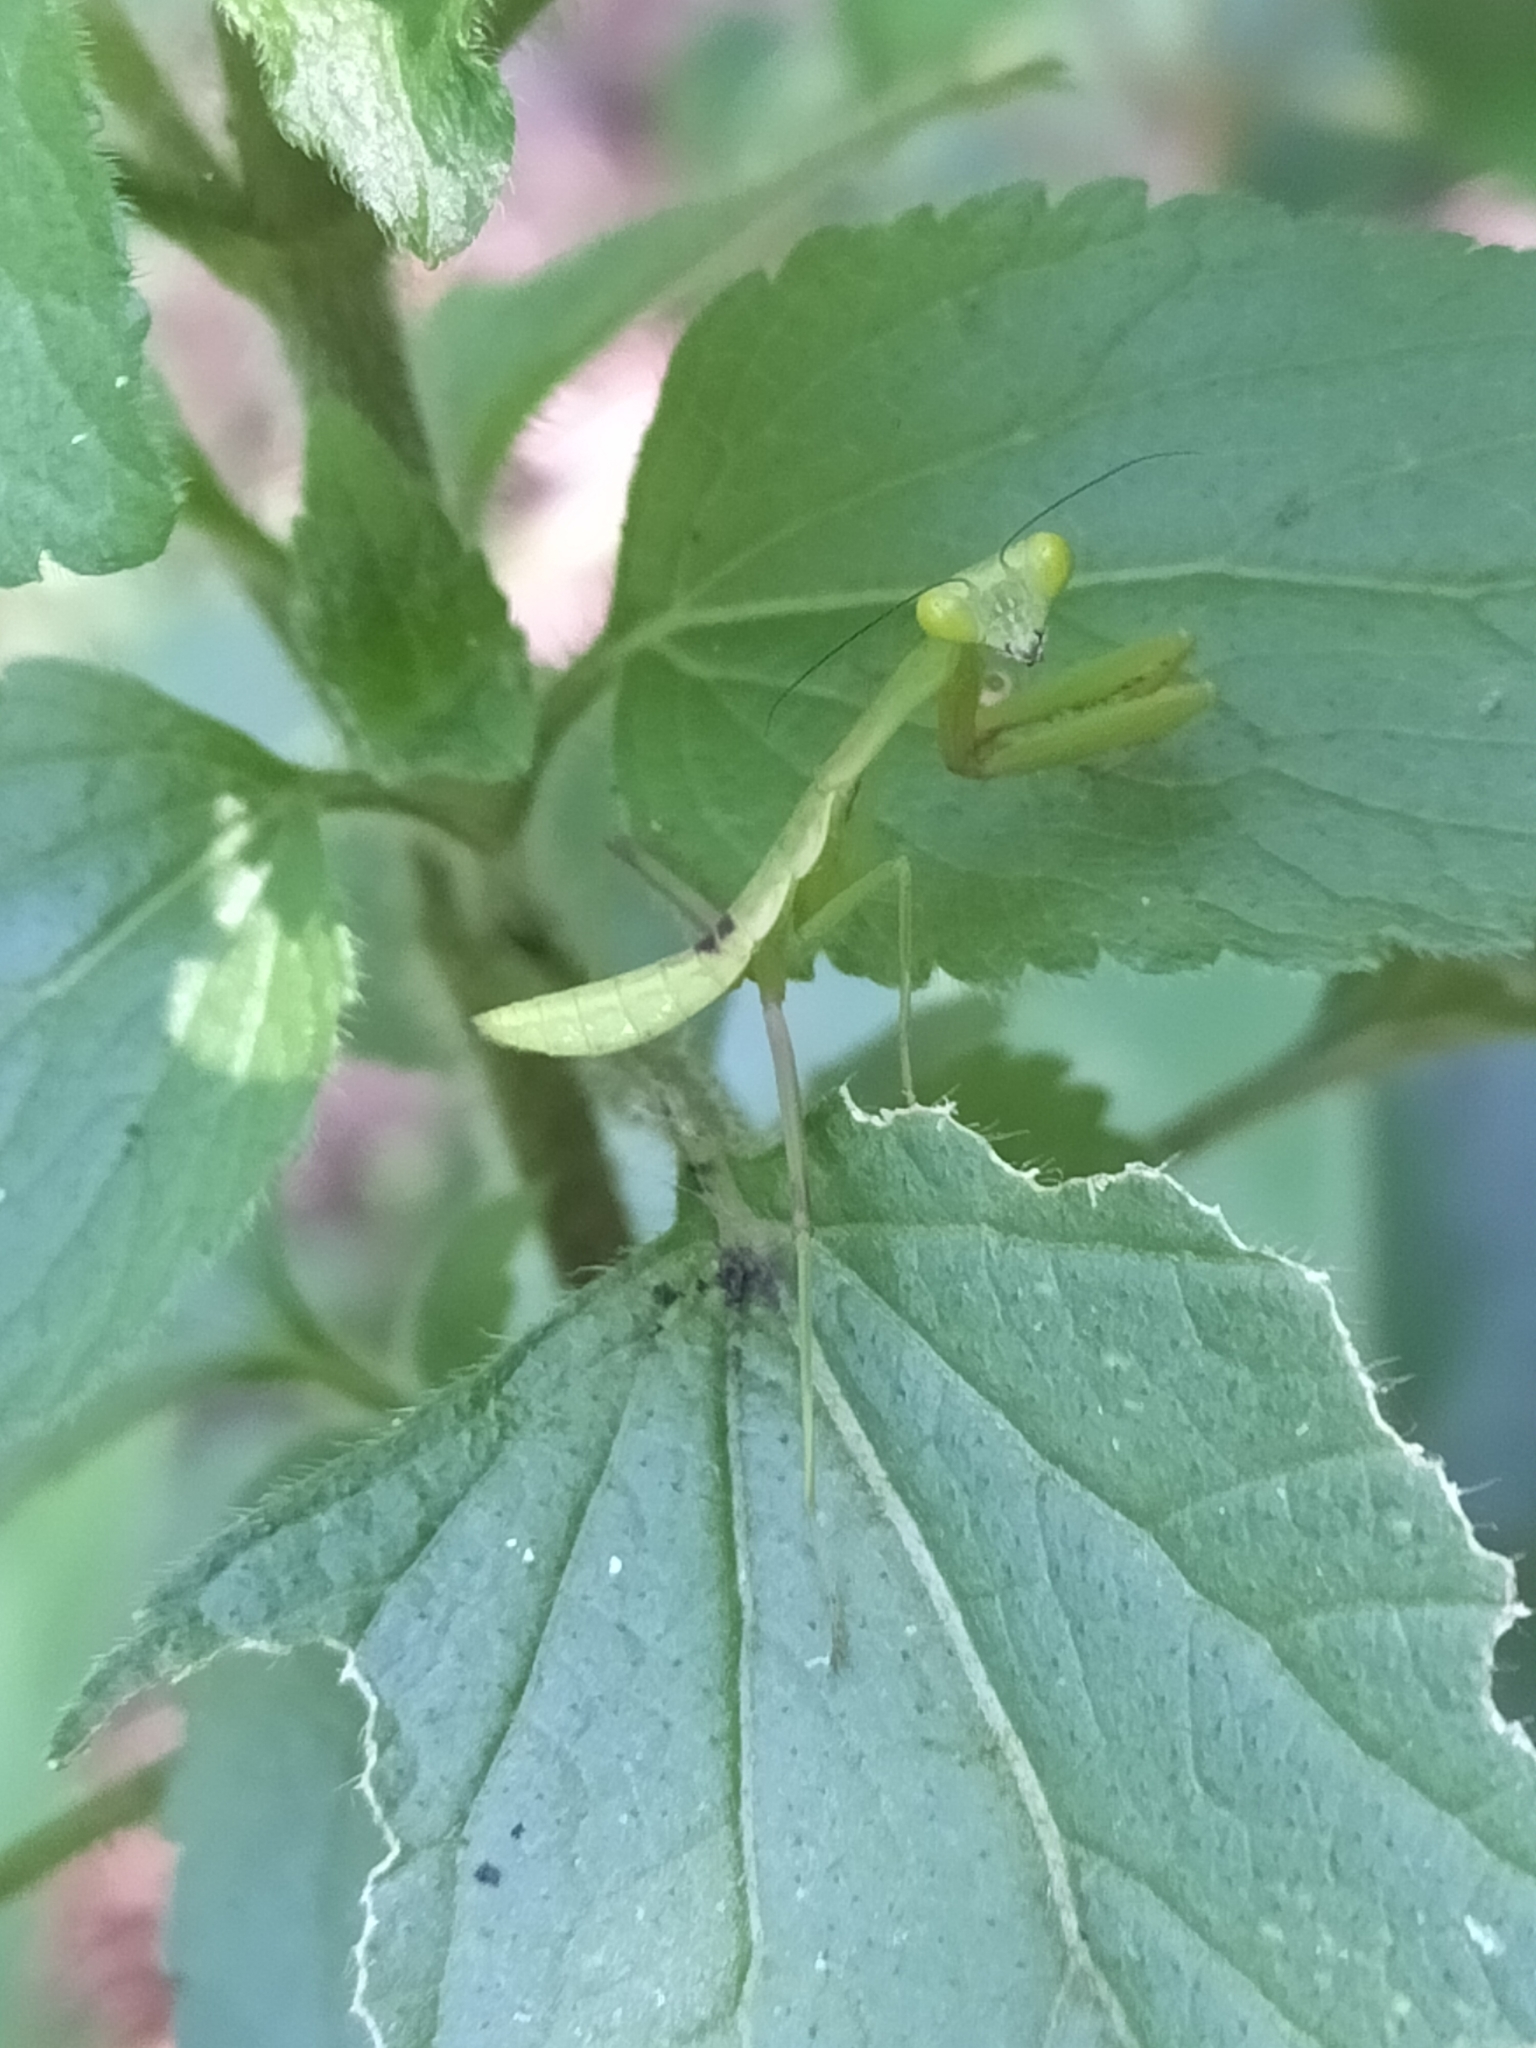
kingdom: Animalia
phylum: Arthropoda
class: Insecta
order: Mantodea
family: Mantidae
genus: Hierodula
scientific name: Hierodula majuscula
